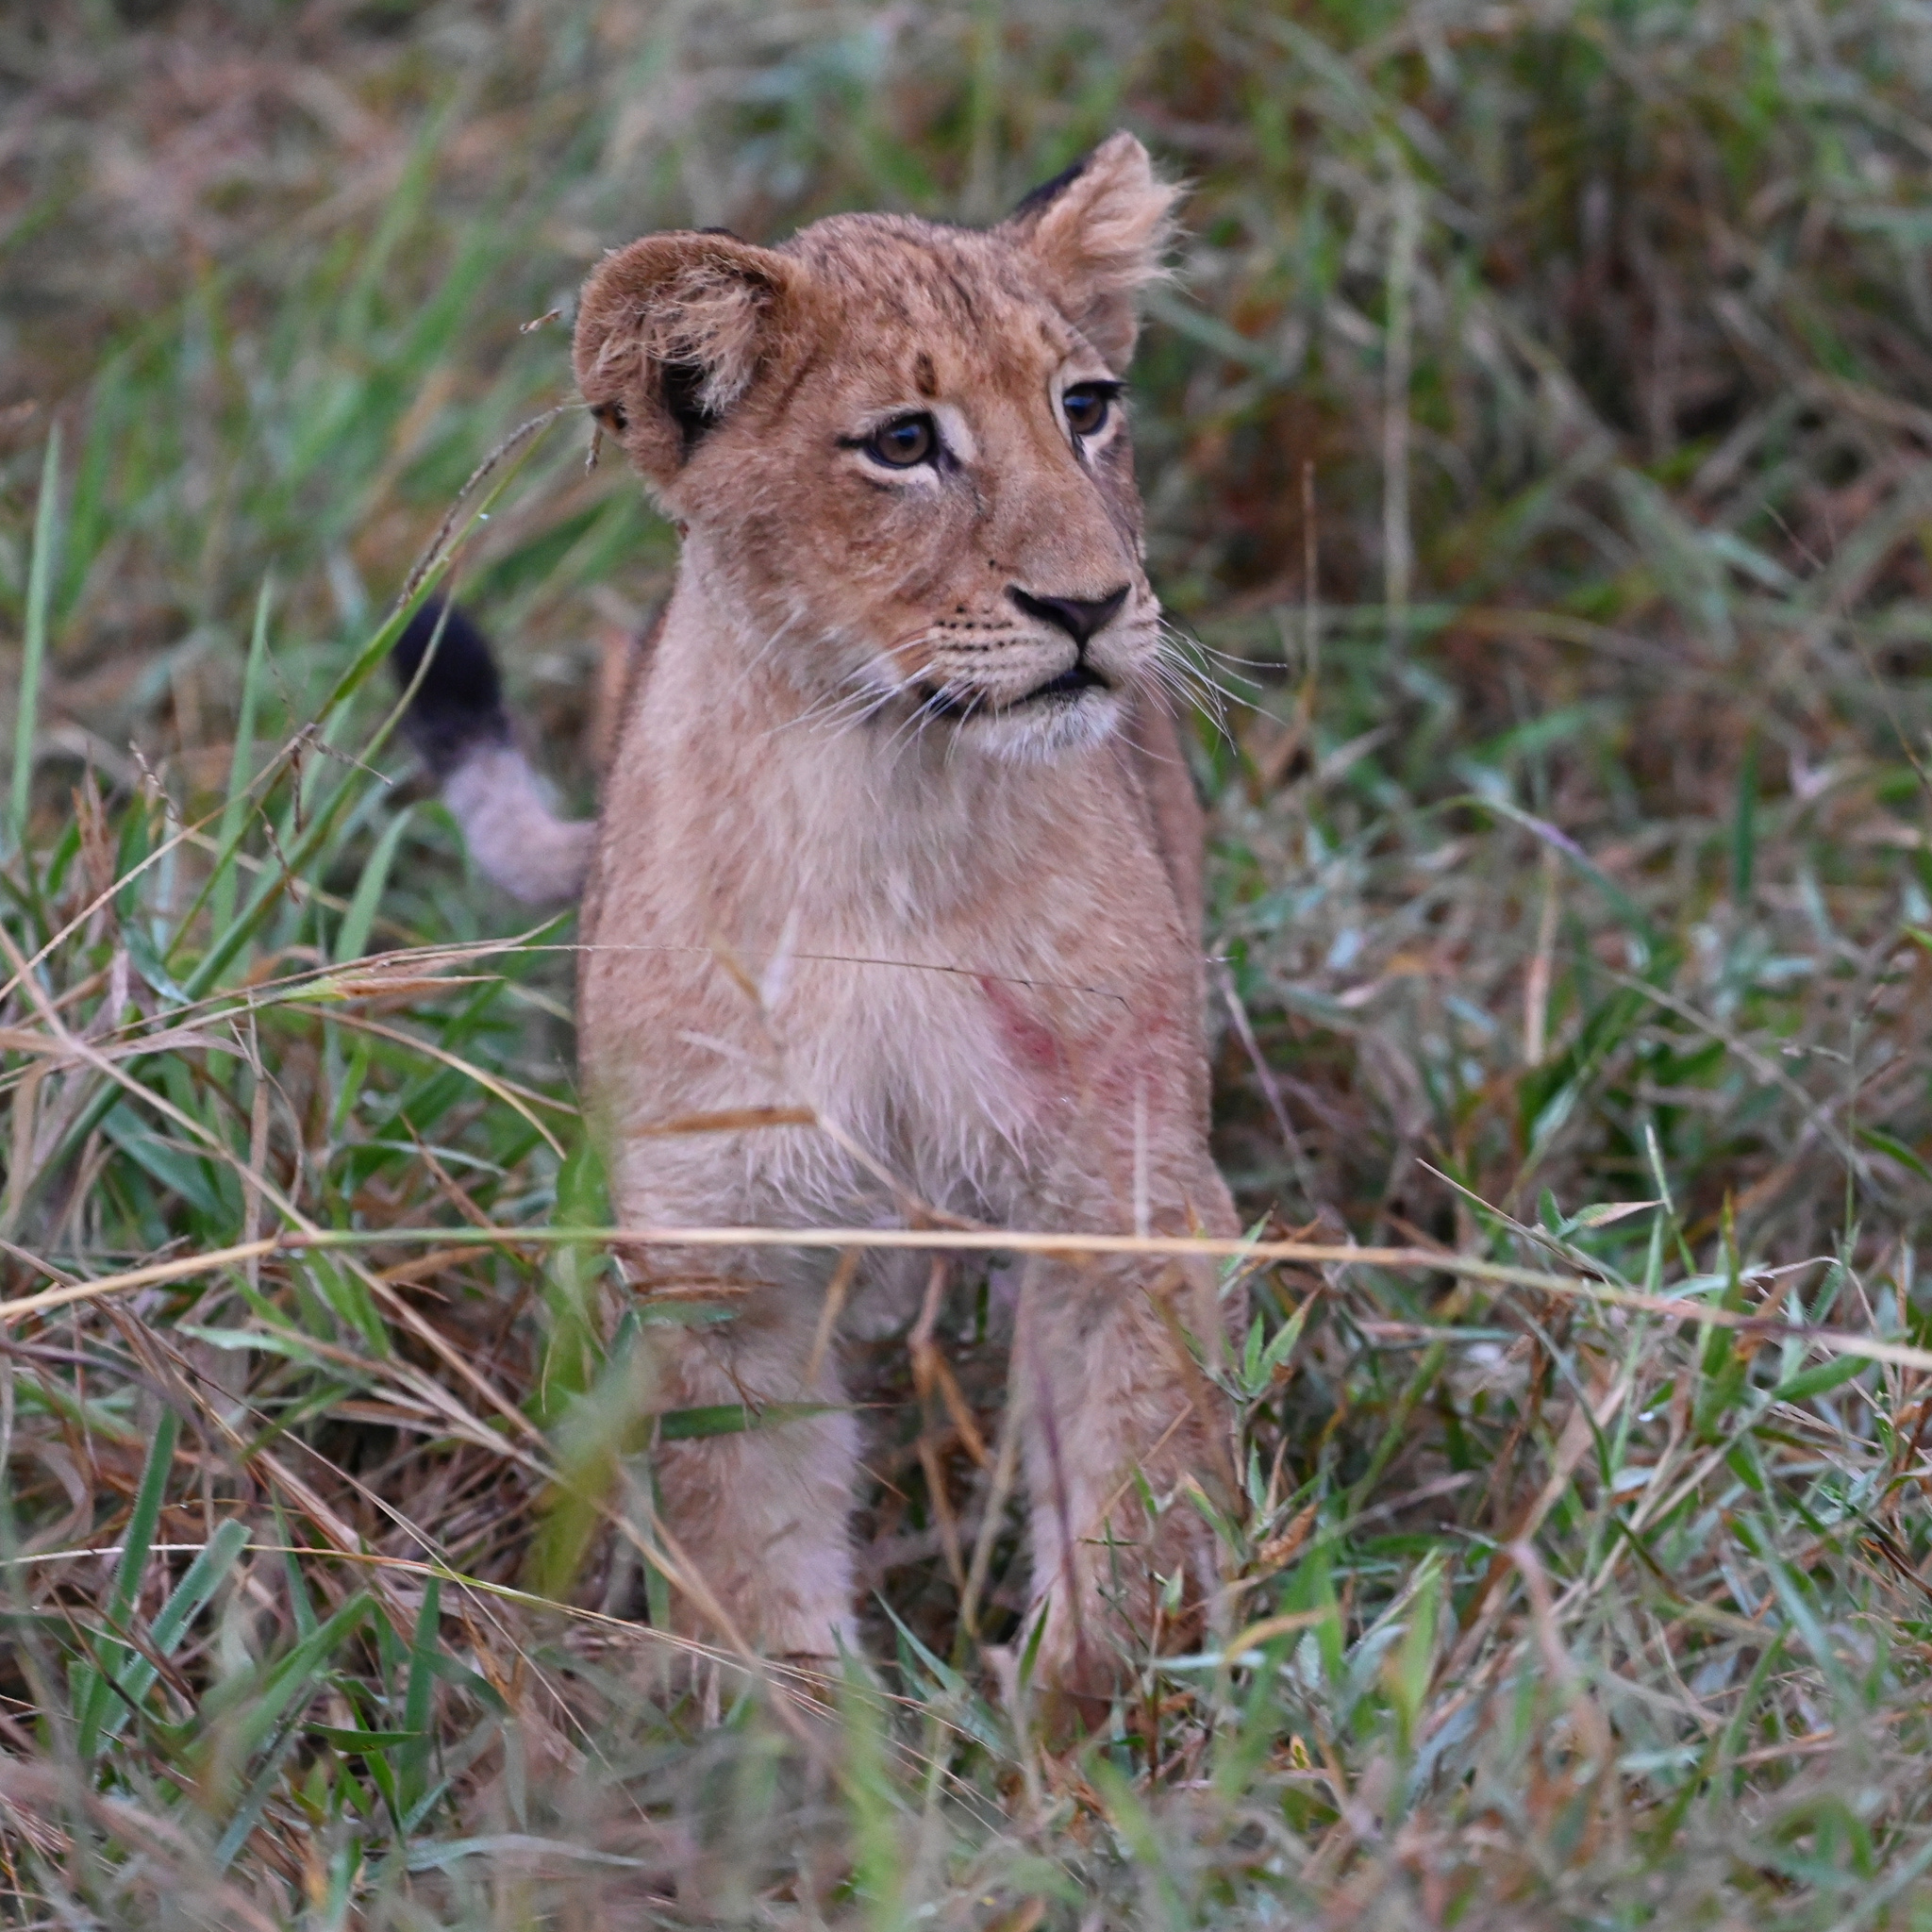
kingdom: Animalia
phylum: Chordata
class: Mammalia
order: Carnivora
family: Felidae
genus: Panthera
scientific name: Panthera leo
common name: Lion
